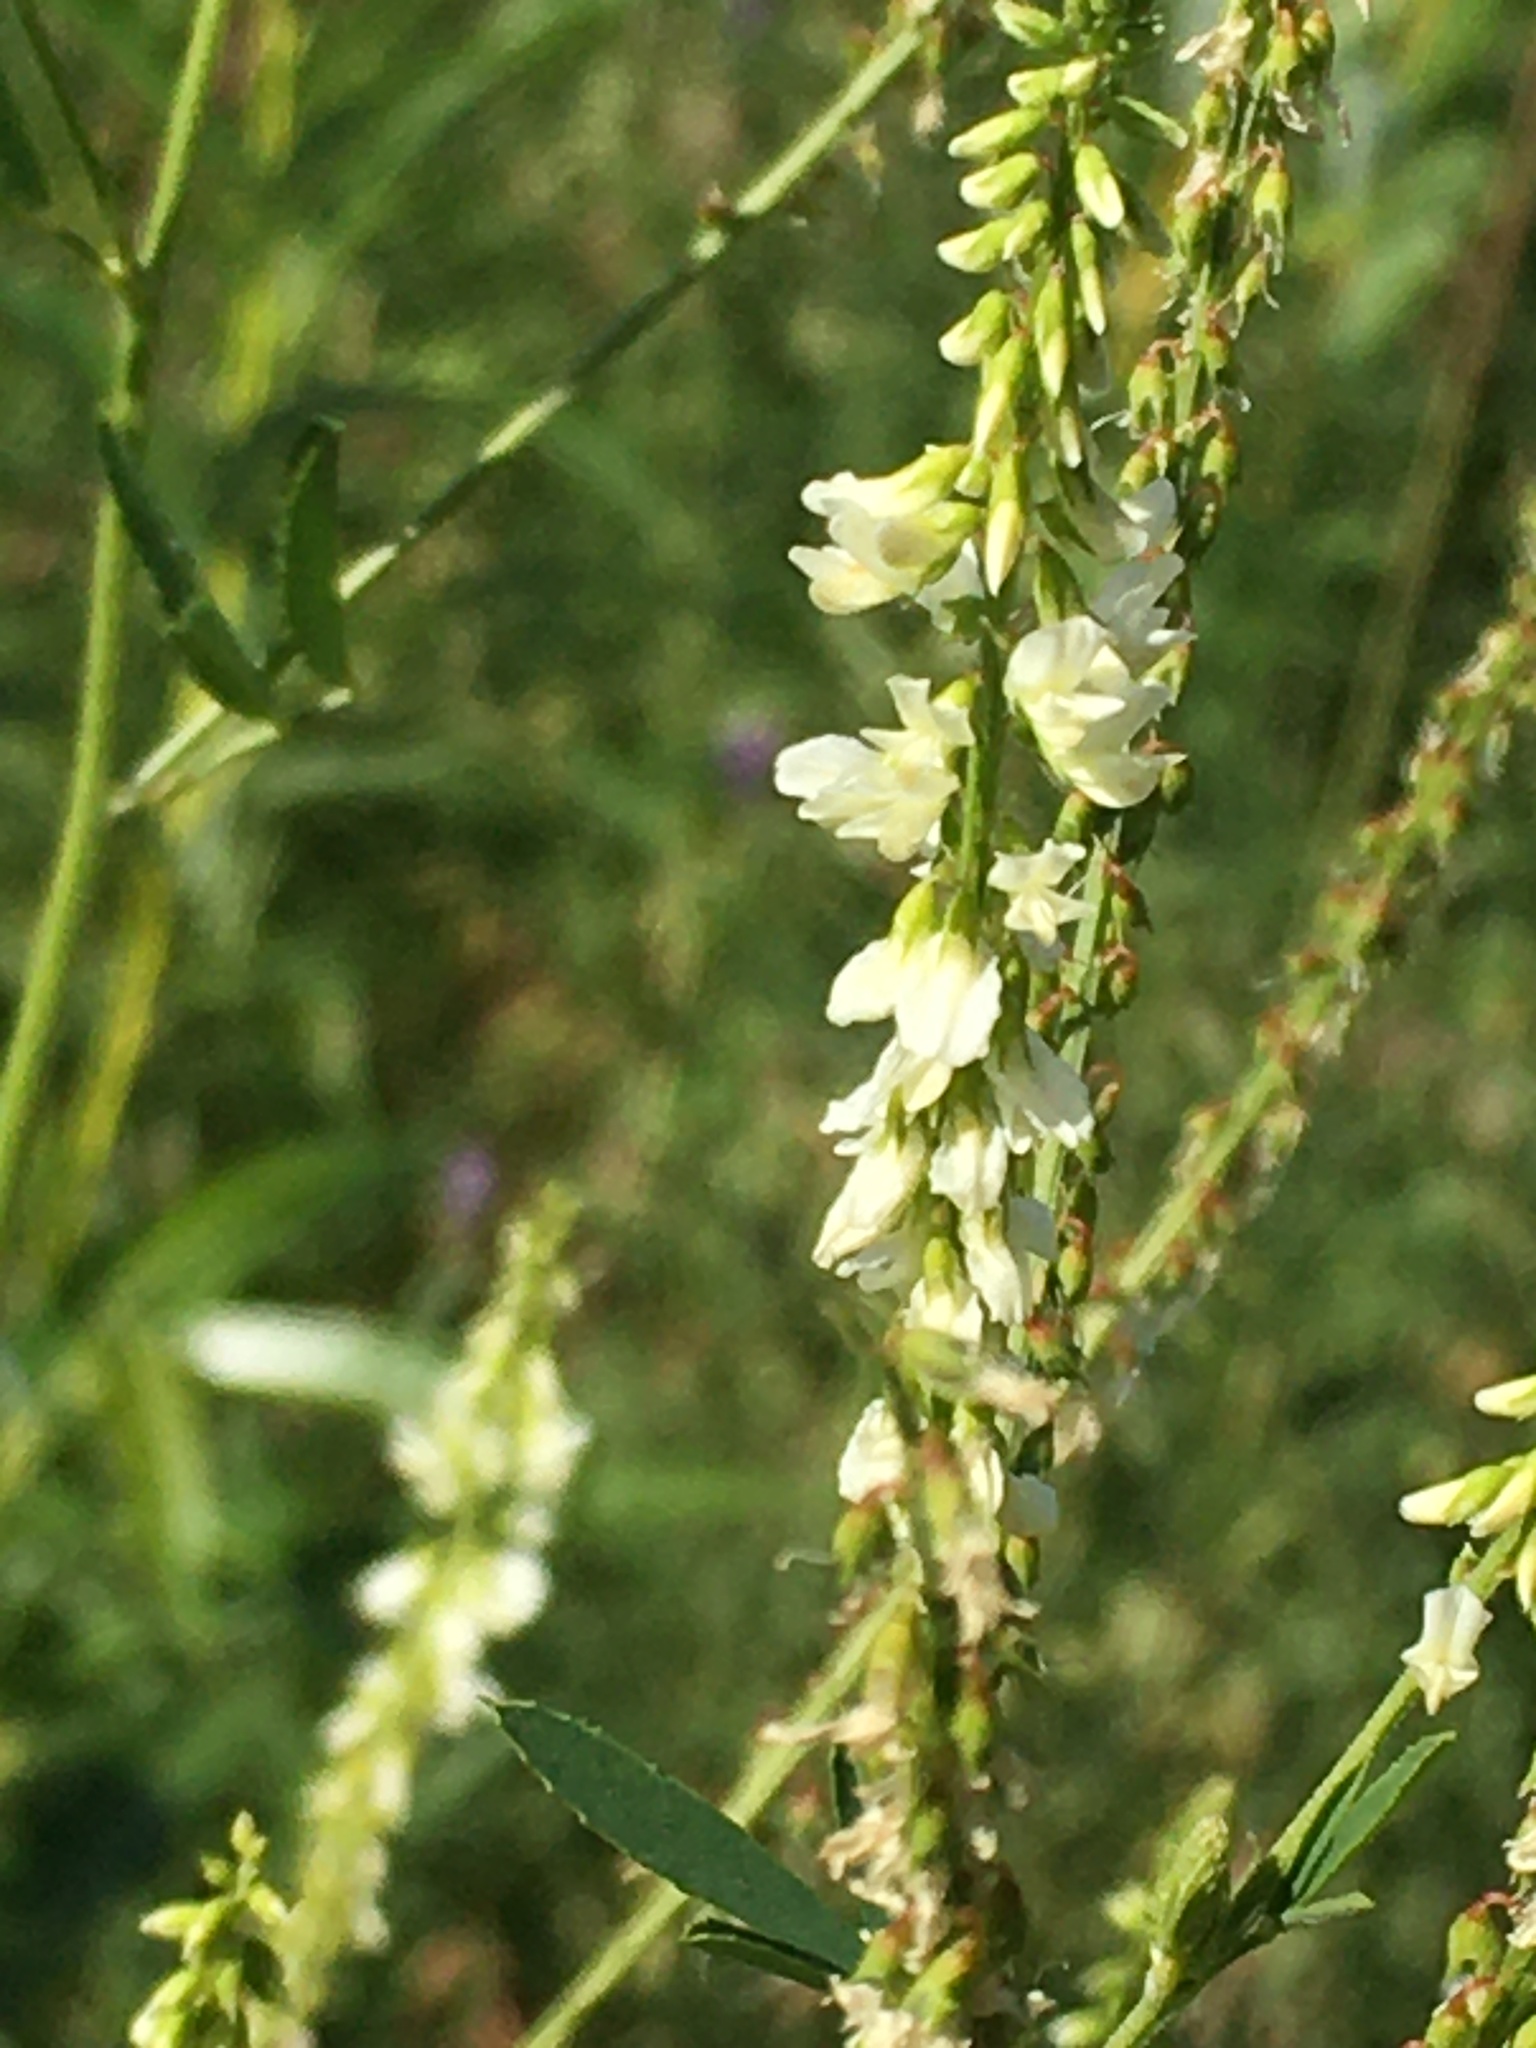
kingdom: Plantae
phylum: Tracheophyta
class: Magnoliopsida
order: Fabales
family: Fabaceae
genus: Melilotus
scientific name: Melilotus albus
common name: White melilot
